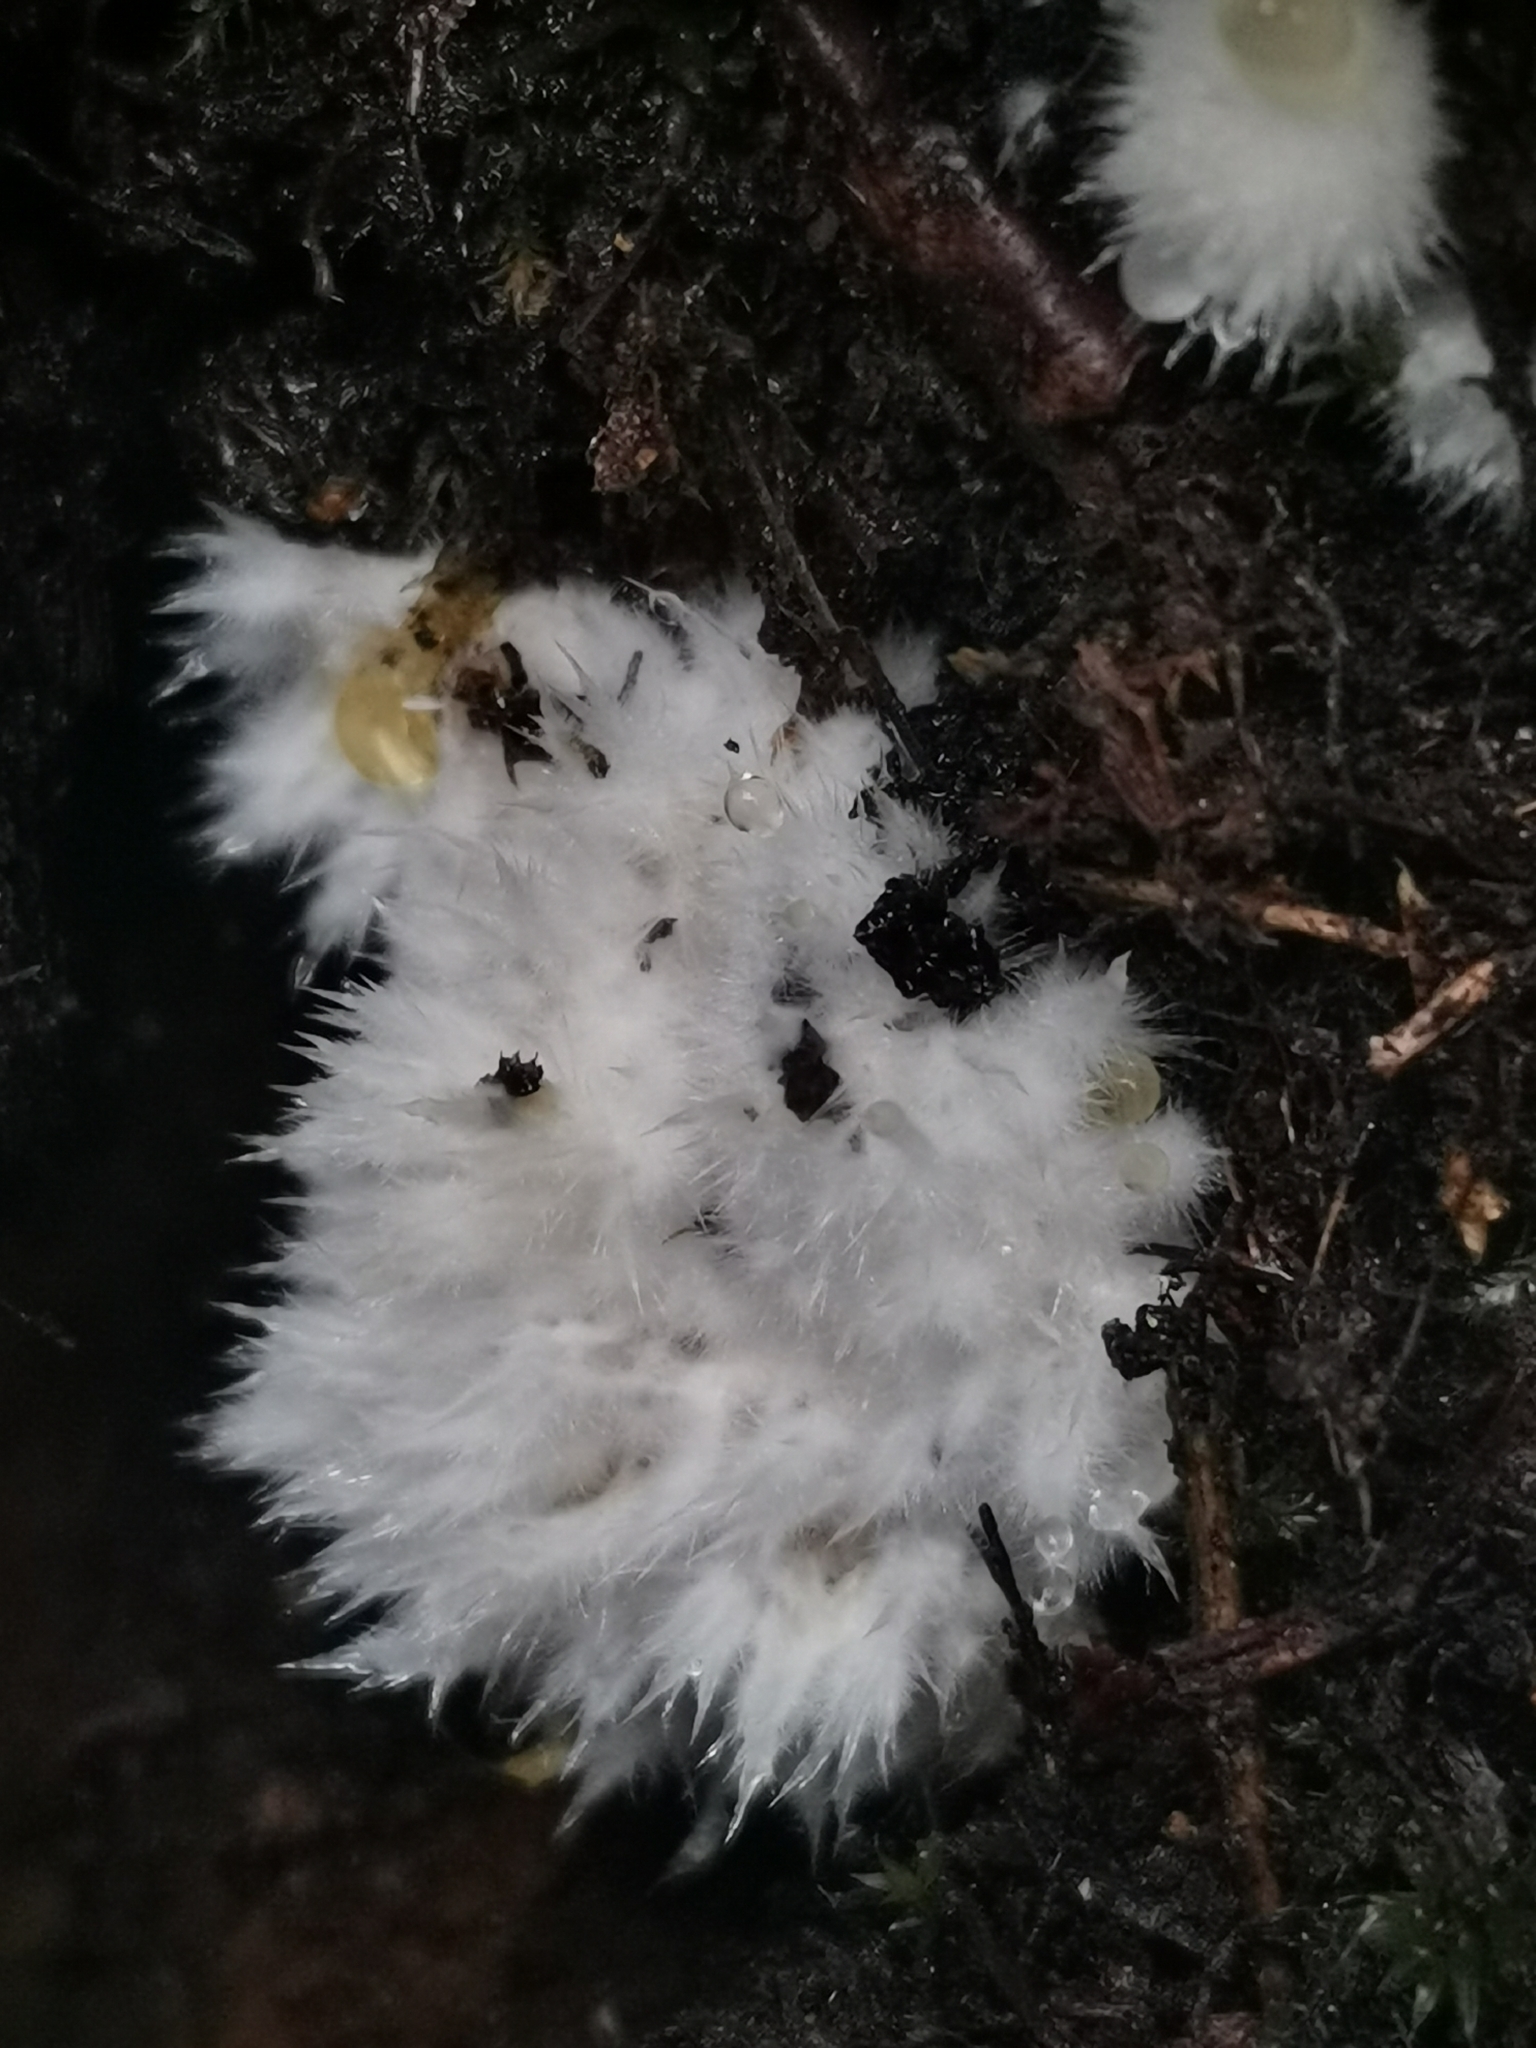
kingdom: Fungi
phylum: Basidiomycota
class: Agaricomycetes
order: Polyporales
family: Dacryobolaceae
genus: Postia
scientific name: Postia ptychogaster
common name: Powderpuff bracket
